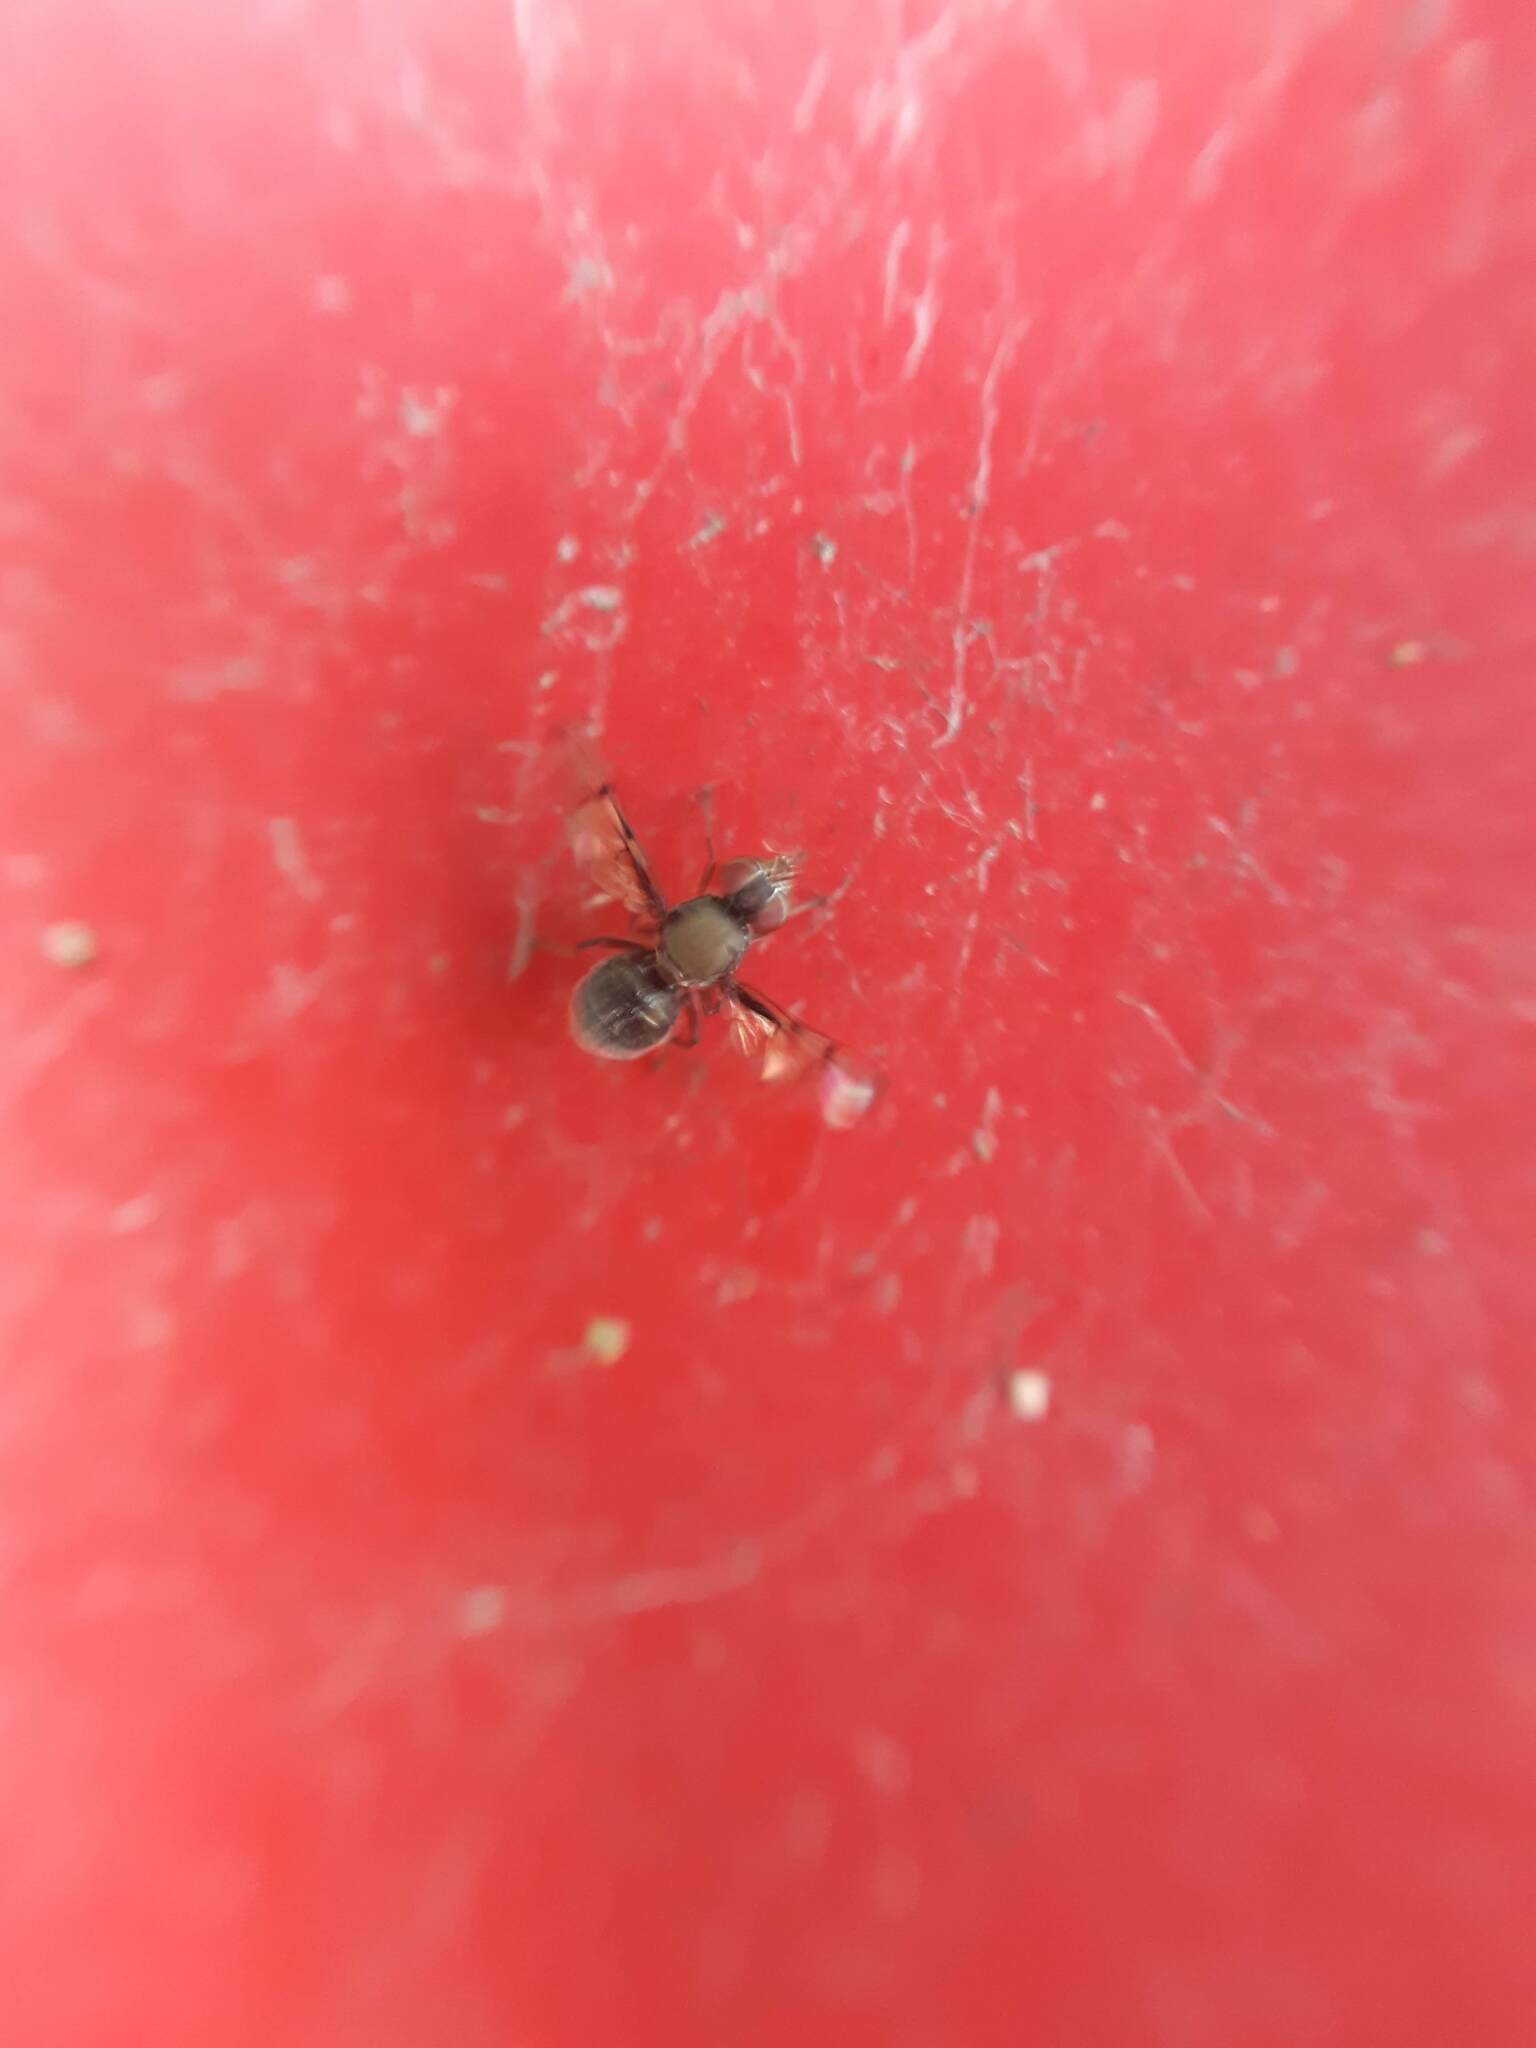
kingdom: Animalia
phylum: Arthropoda
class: Insecta
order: Diptera
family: Platystomatidae
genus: Pogonortalis
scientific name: Pogonortalis doclea
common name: Boatman fly
